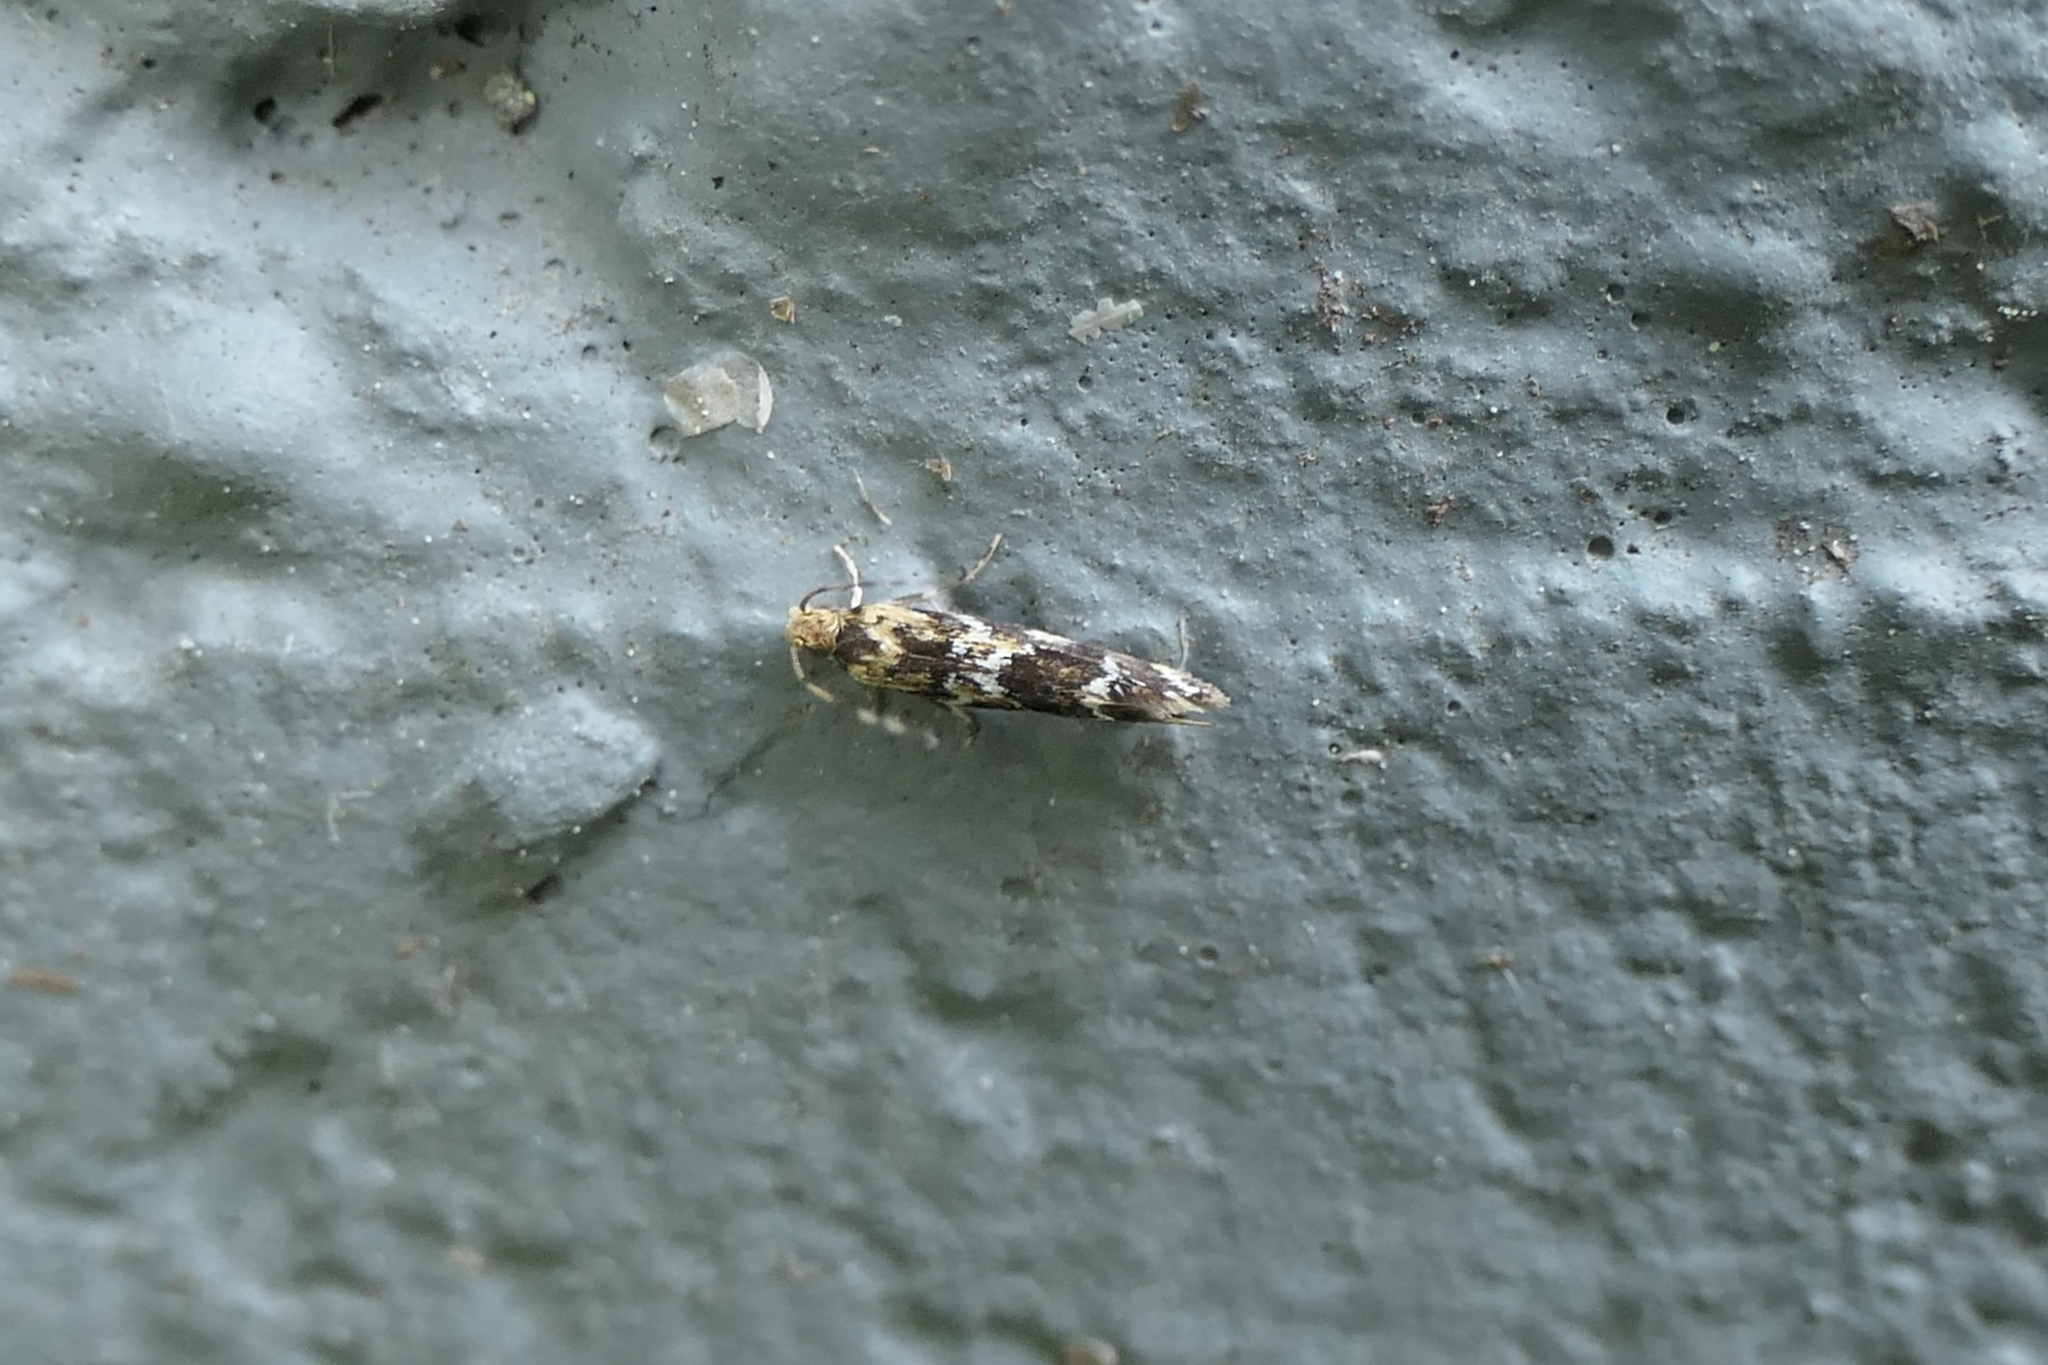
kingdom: Animalia
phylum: Arthropoda
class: Insecta
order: Lepidoptera
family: Dryadaulidae
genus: Dryadaula
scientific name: Dryadaula pactolia
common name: Cellar clothes
